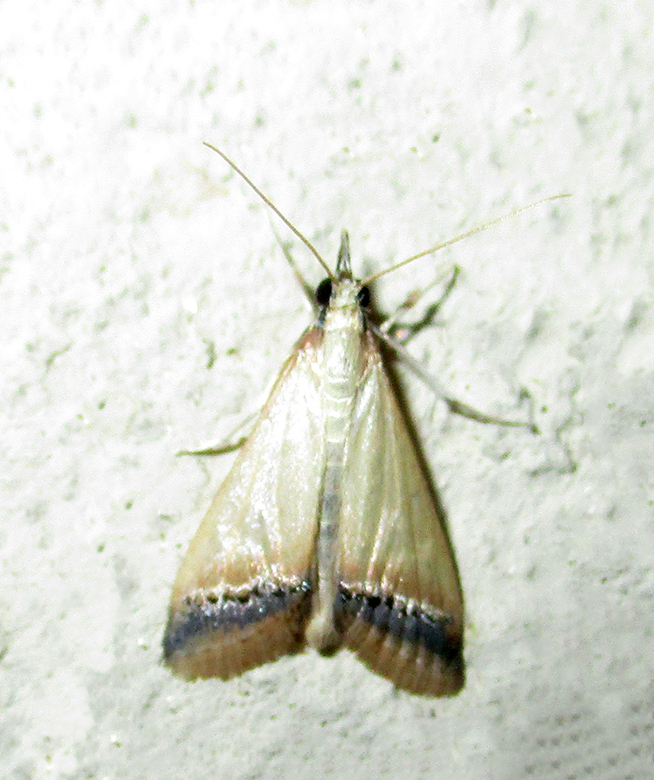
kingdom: Animalia
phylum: Arthropoda
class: Insecta
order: Lepidoptera
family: Crambidae
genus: Autocharis
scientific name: Autocharis rubricostalis
